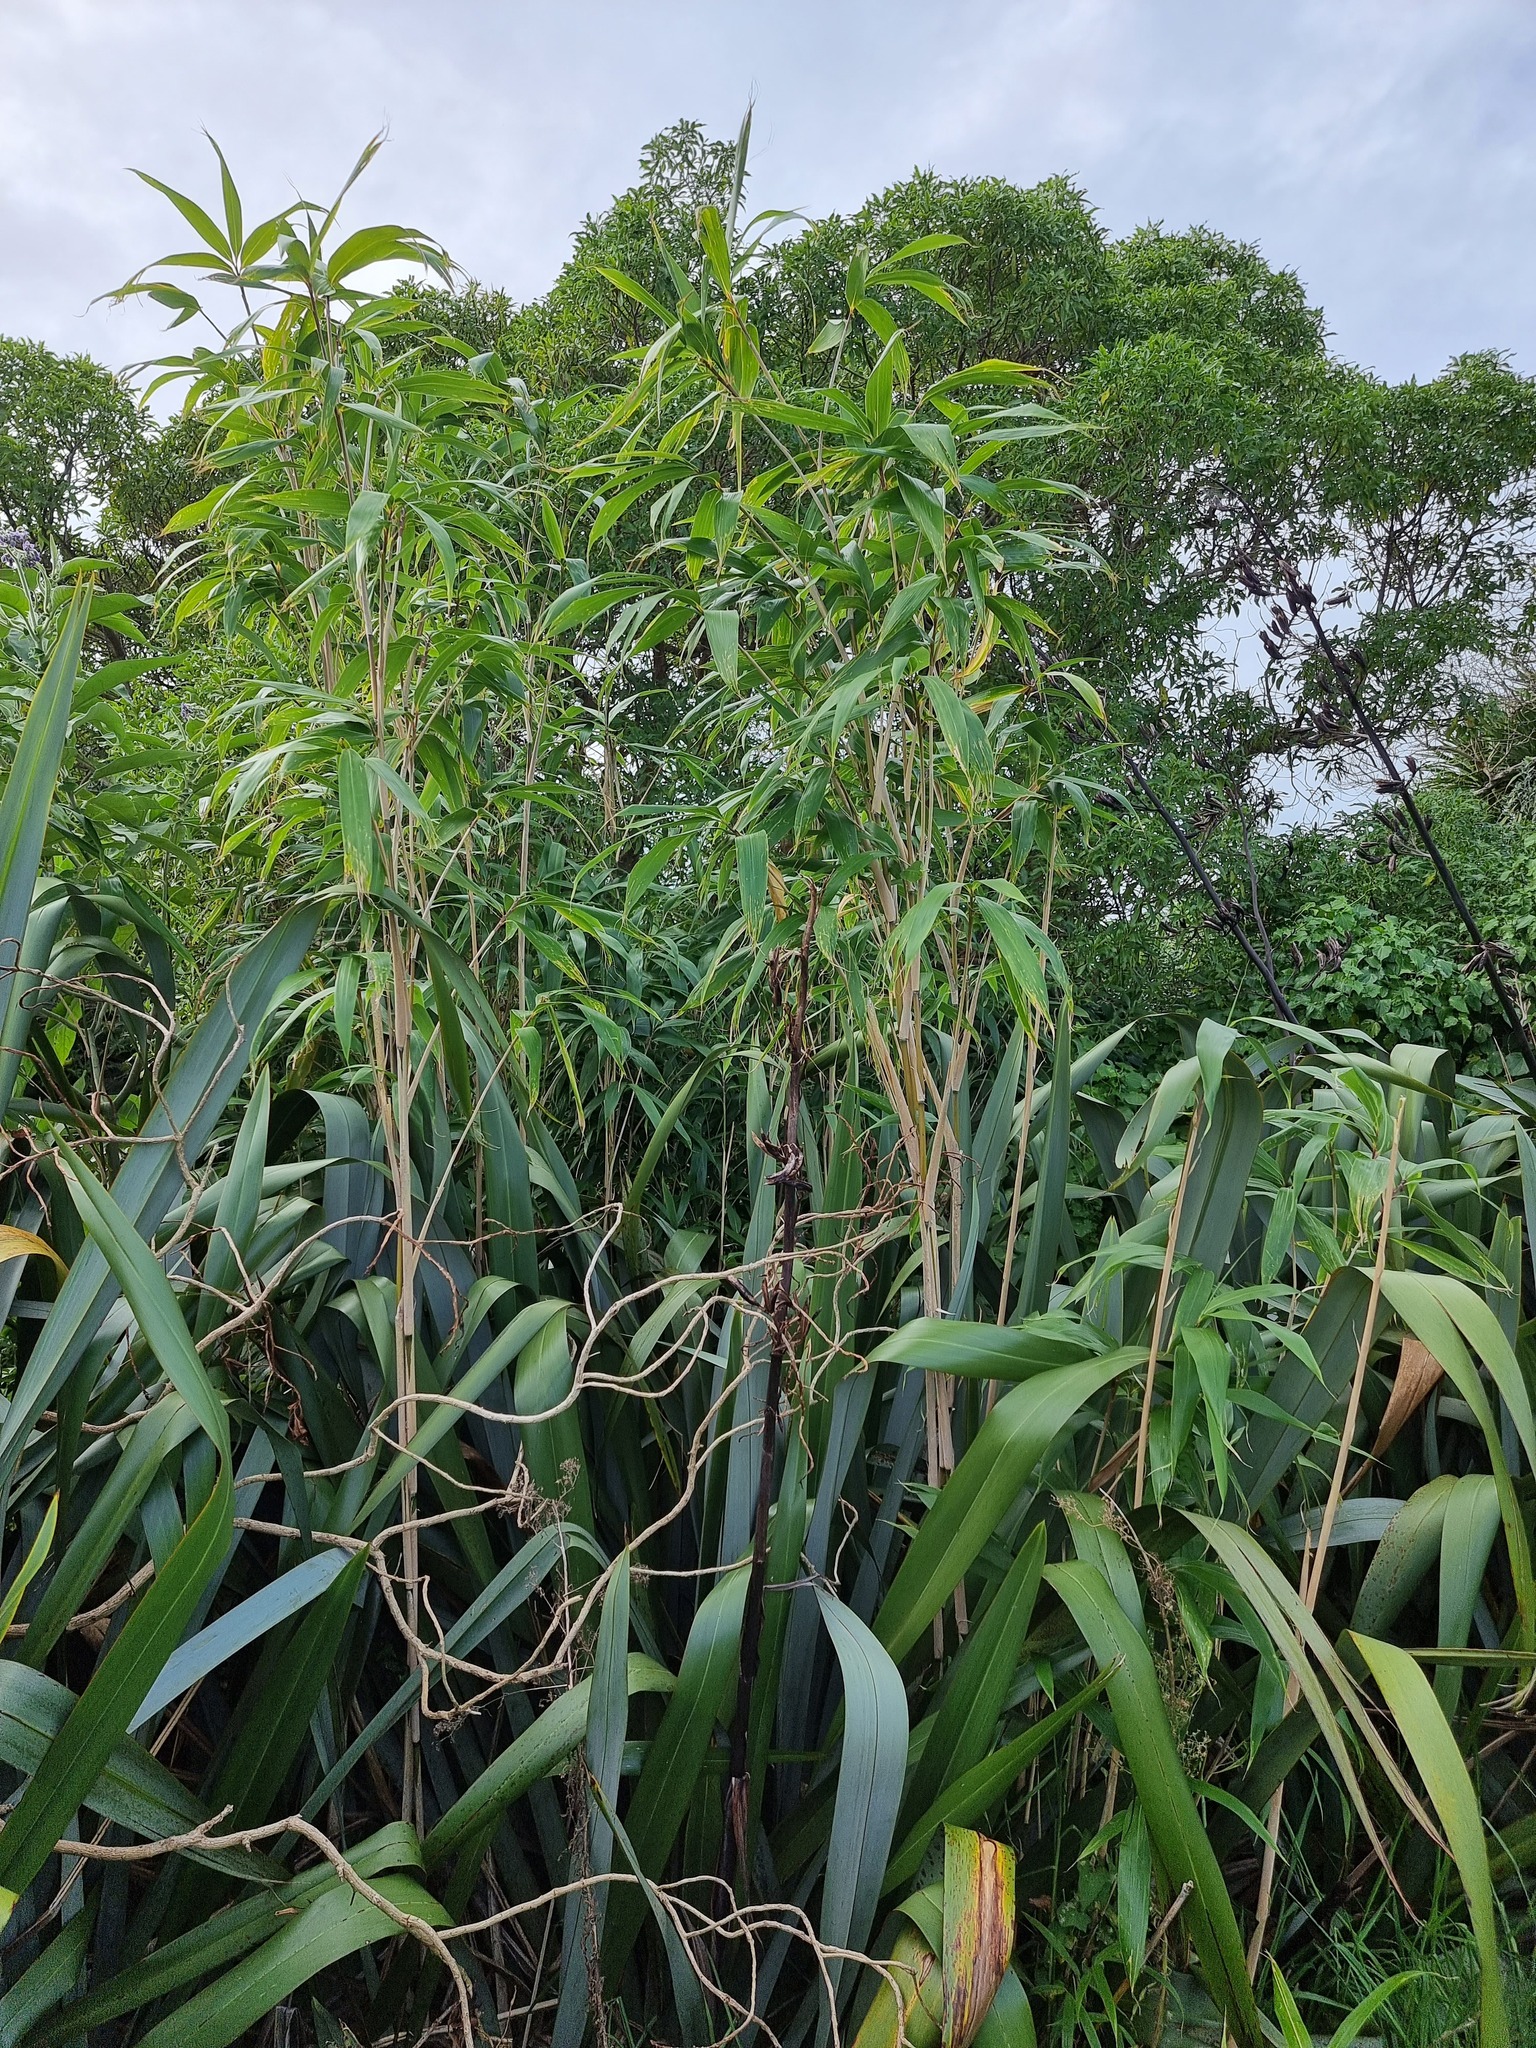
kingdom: Plantae
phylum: Tracheophyta
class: Liliopsida
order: Poales
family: Poaceae
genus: Pseudosasa
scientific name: Pseudosasa japonica
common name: Arrow bamboo
